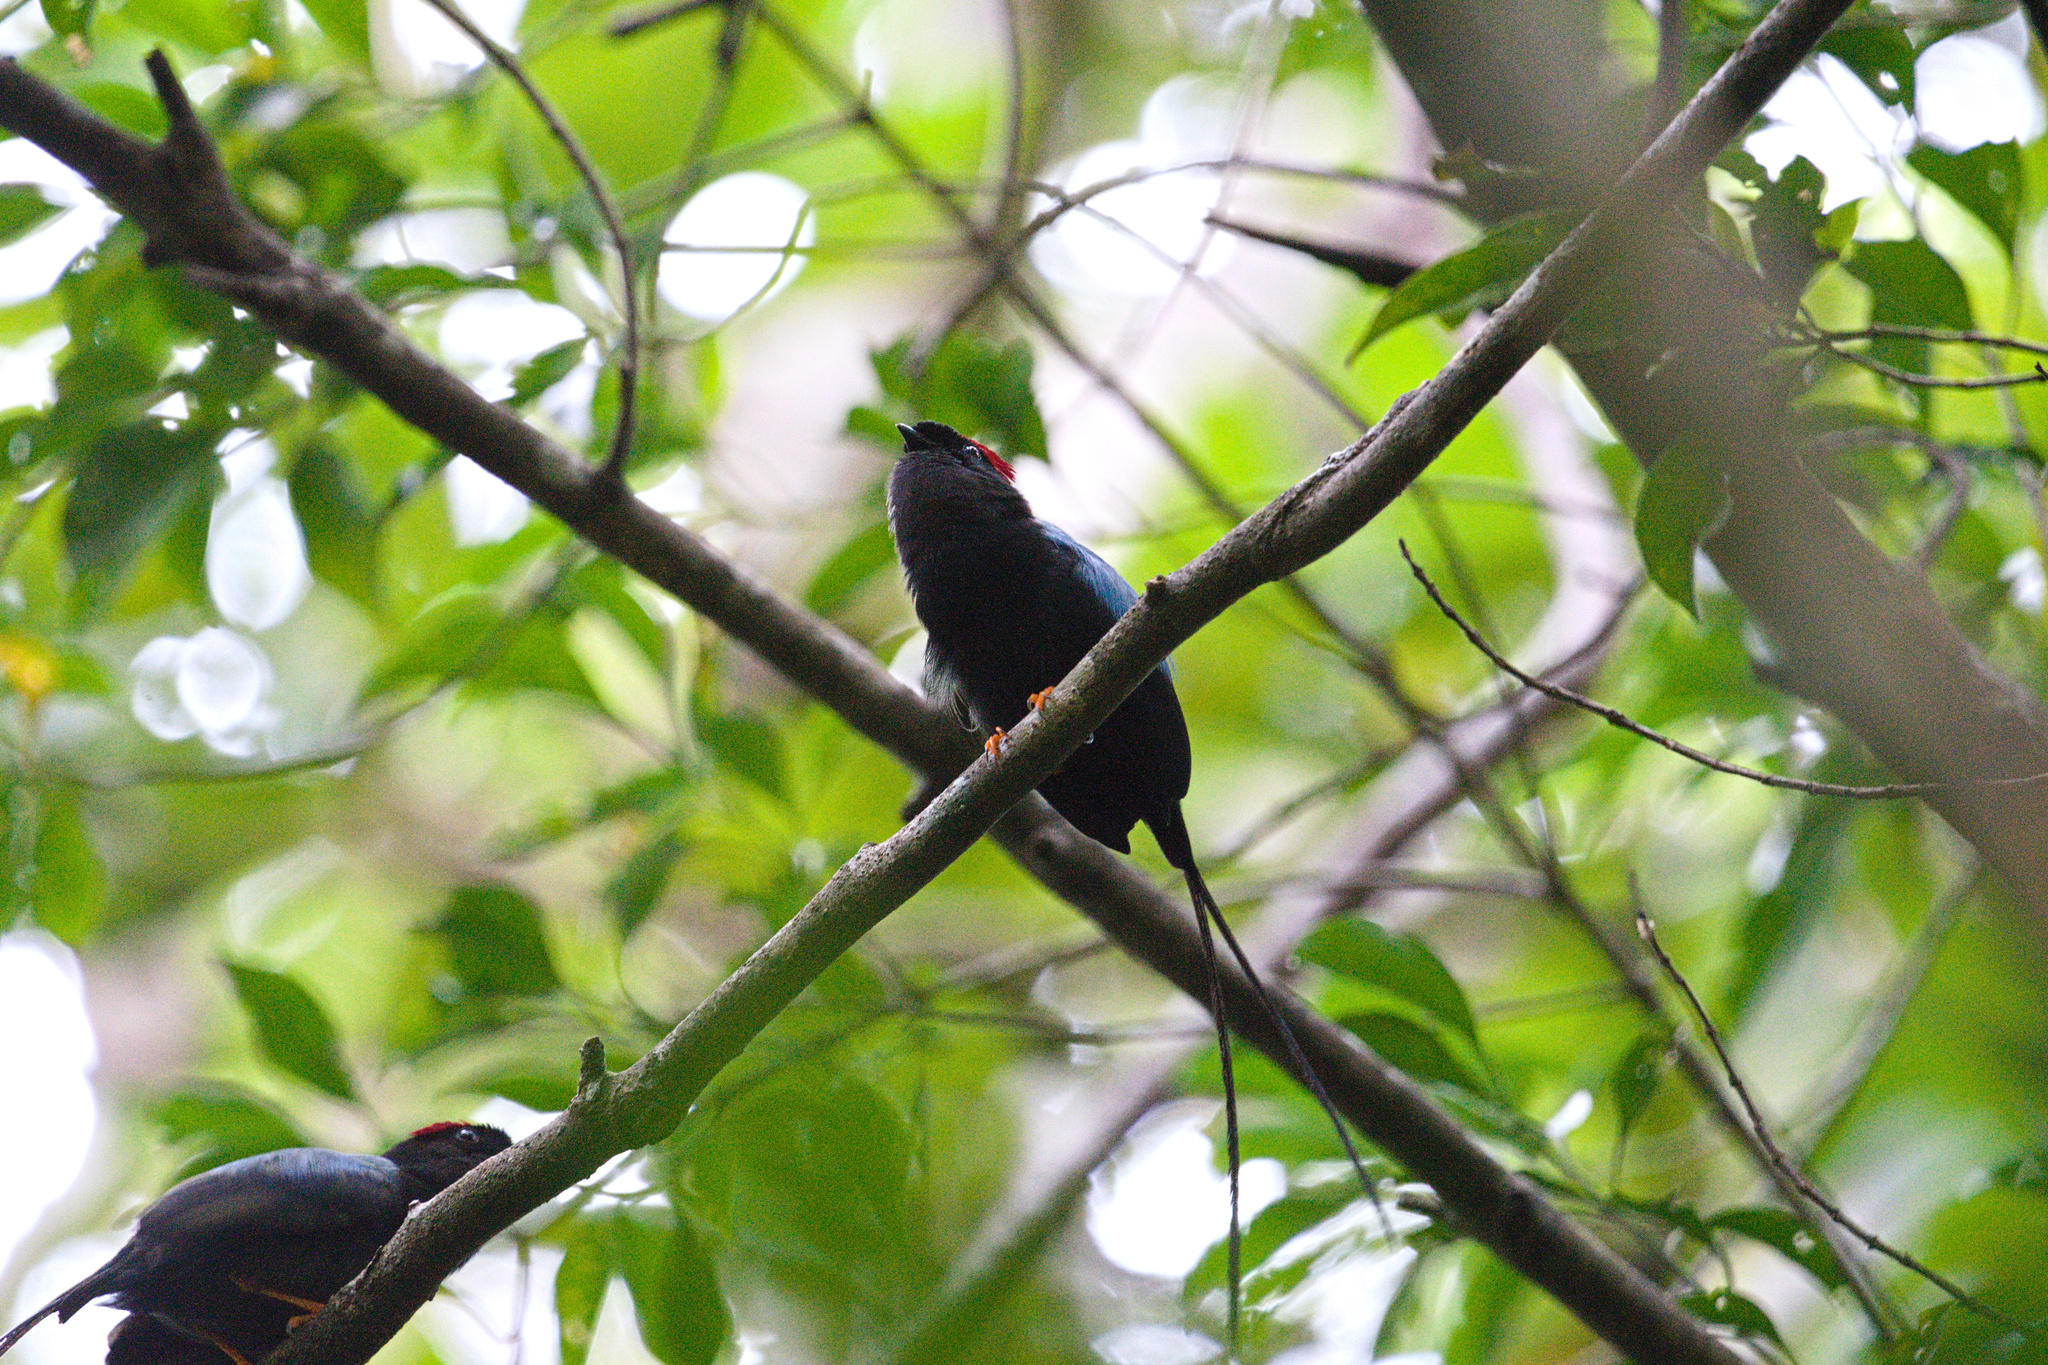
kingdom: Animalia
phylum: Chordata
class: Aves
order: Passeriformes
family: Pipridae
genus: Chiroxiphia
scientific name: Chiroxiphia linearis
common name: Long-tailed manakin
